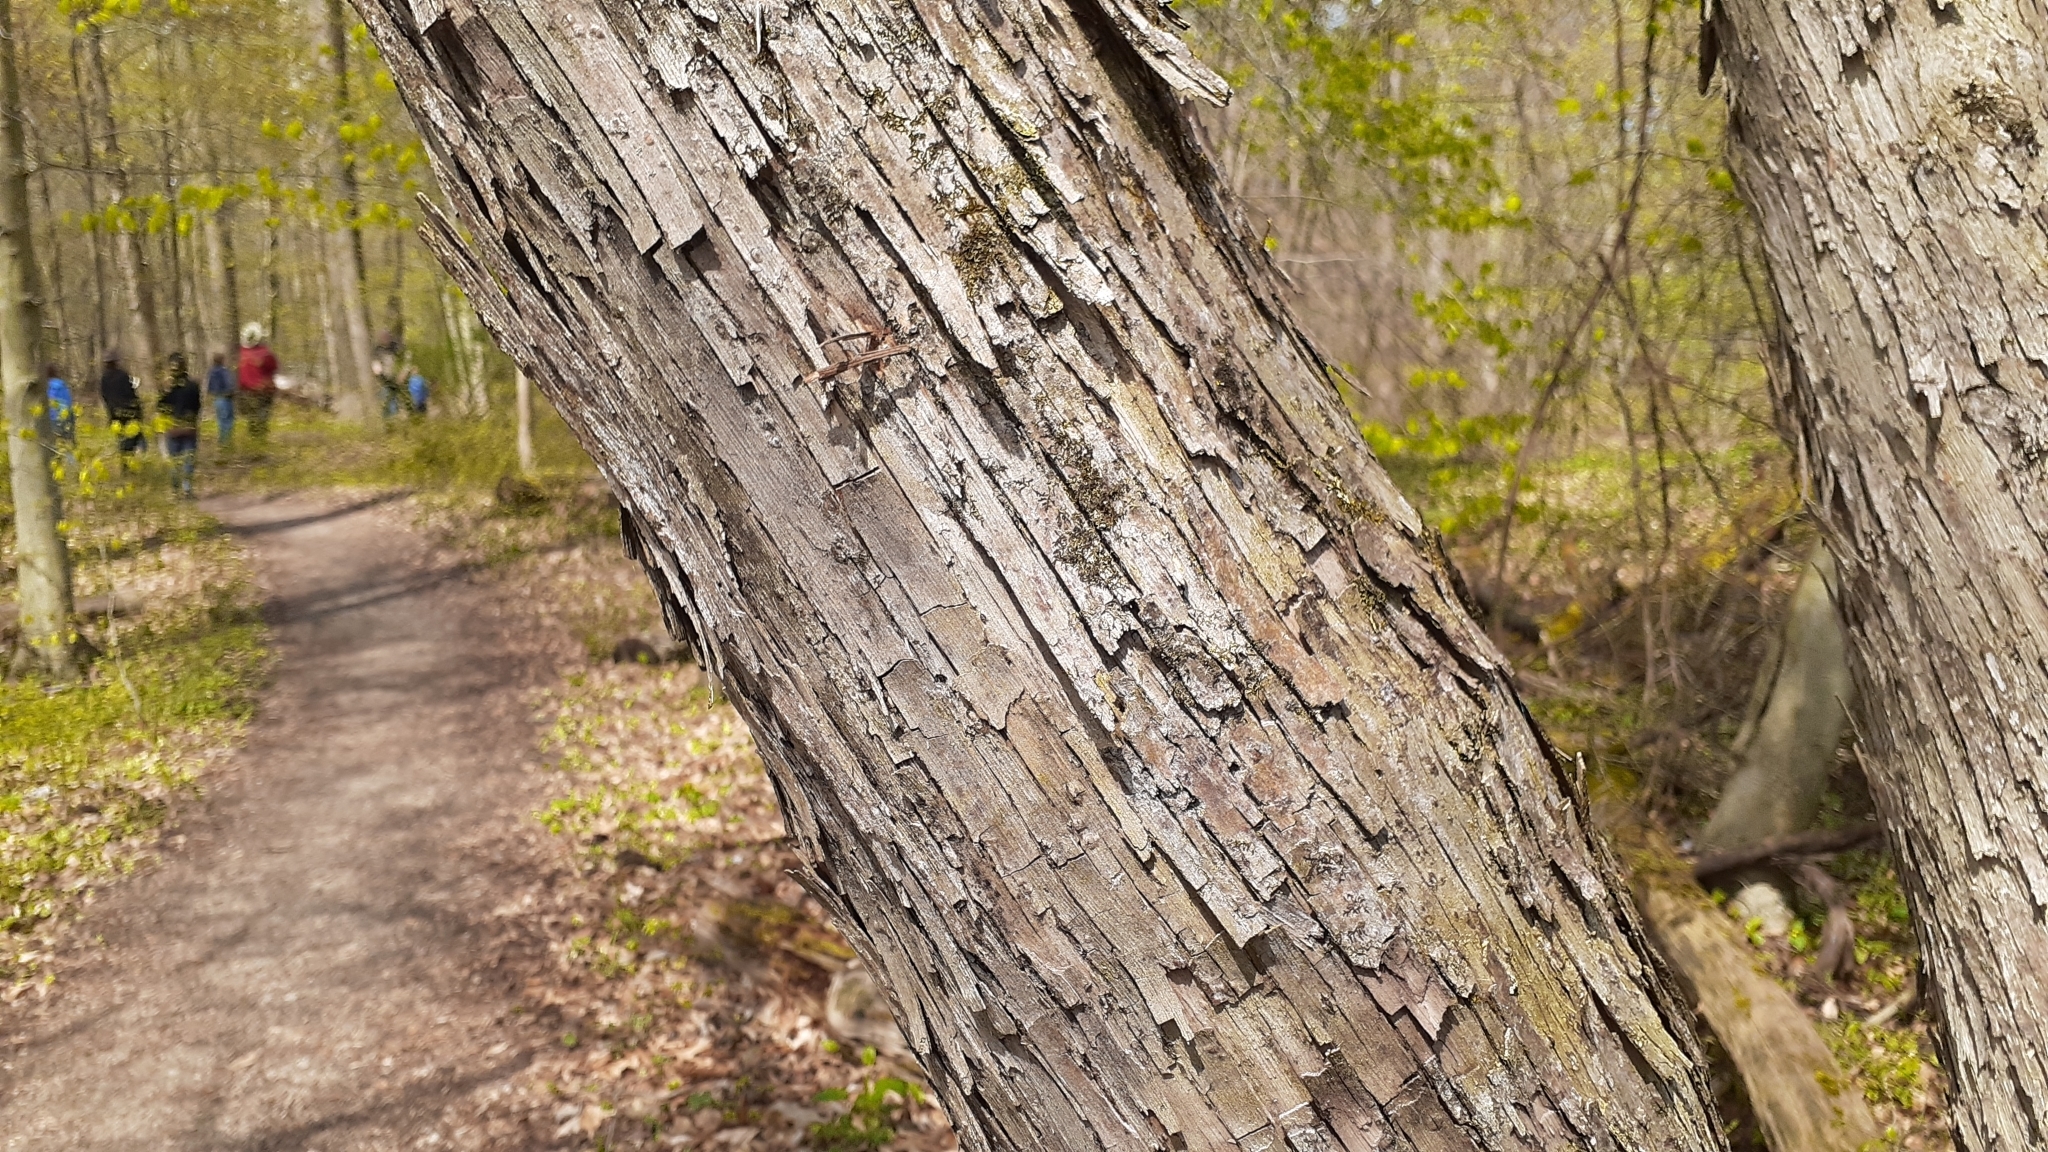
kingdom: Plantae
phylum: Tracheophyta
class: Magnoliopsida
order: Fagales
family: Betulaceae
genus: Ostrya
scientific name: Ostrya virginiana
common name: Ironwood
